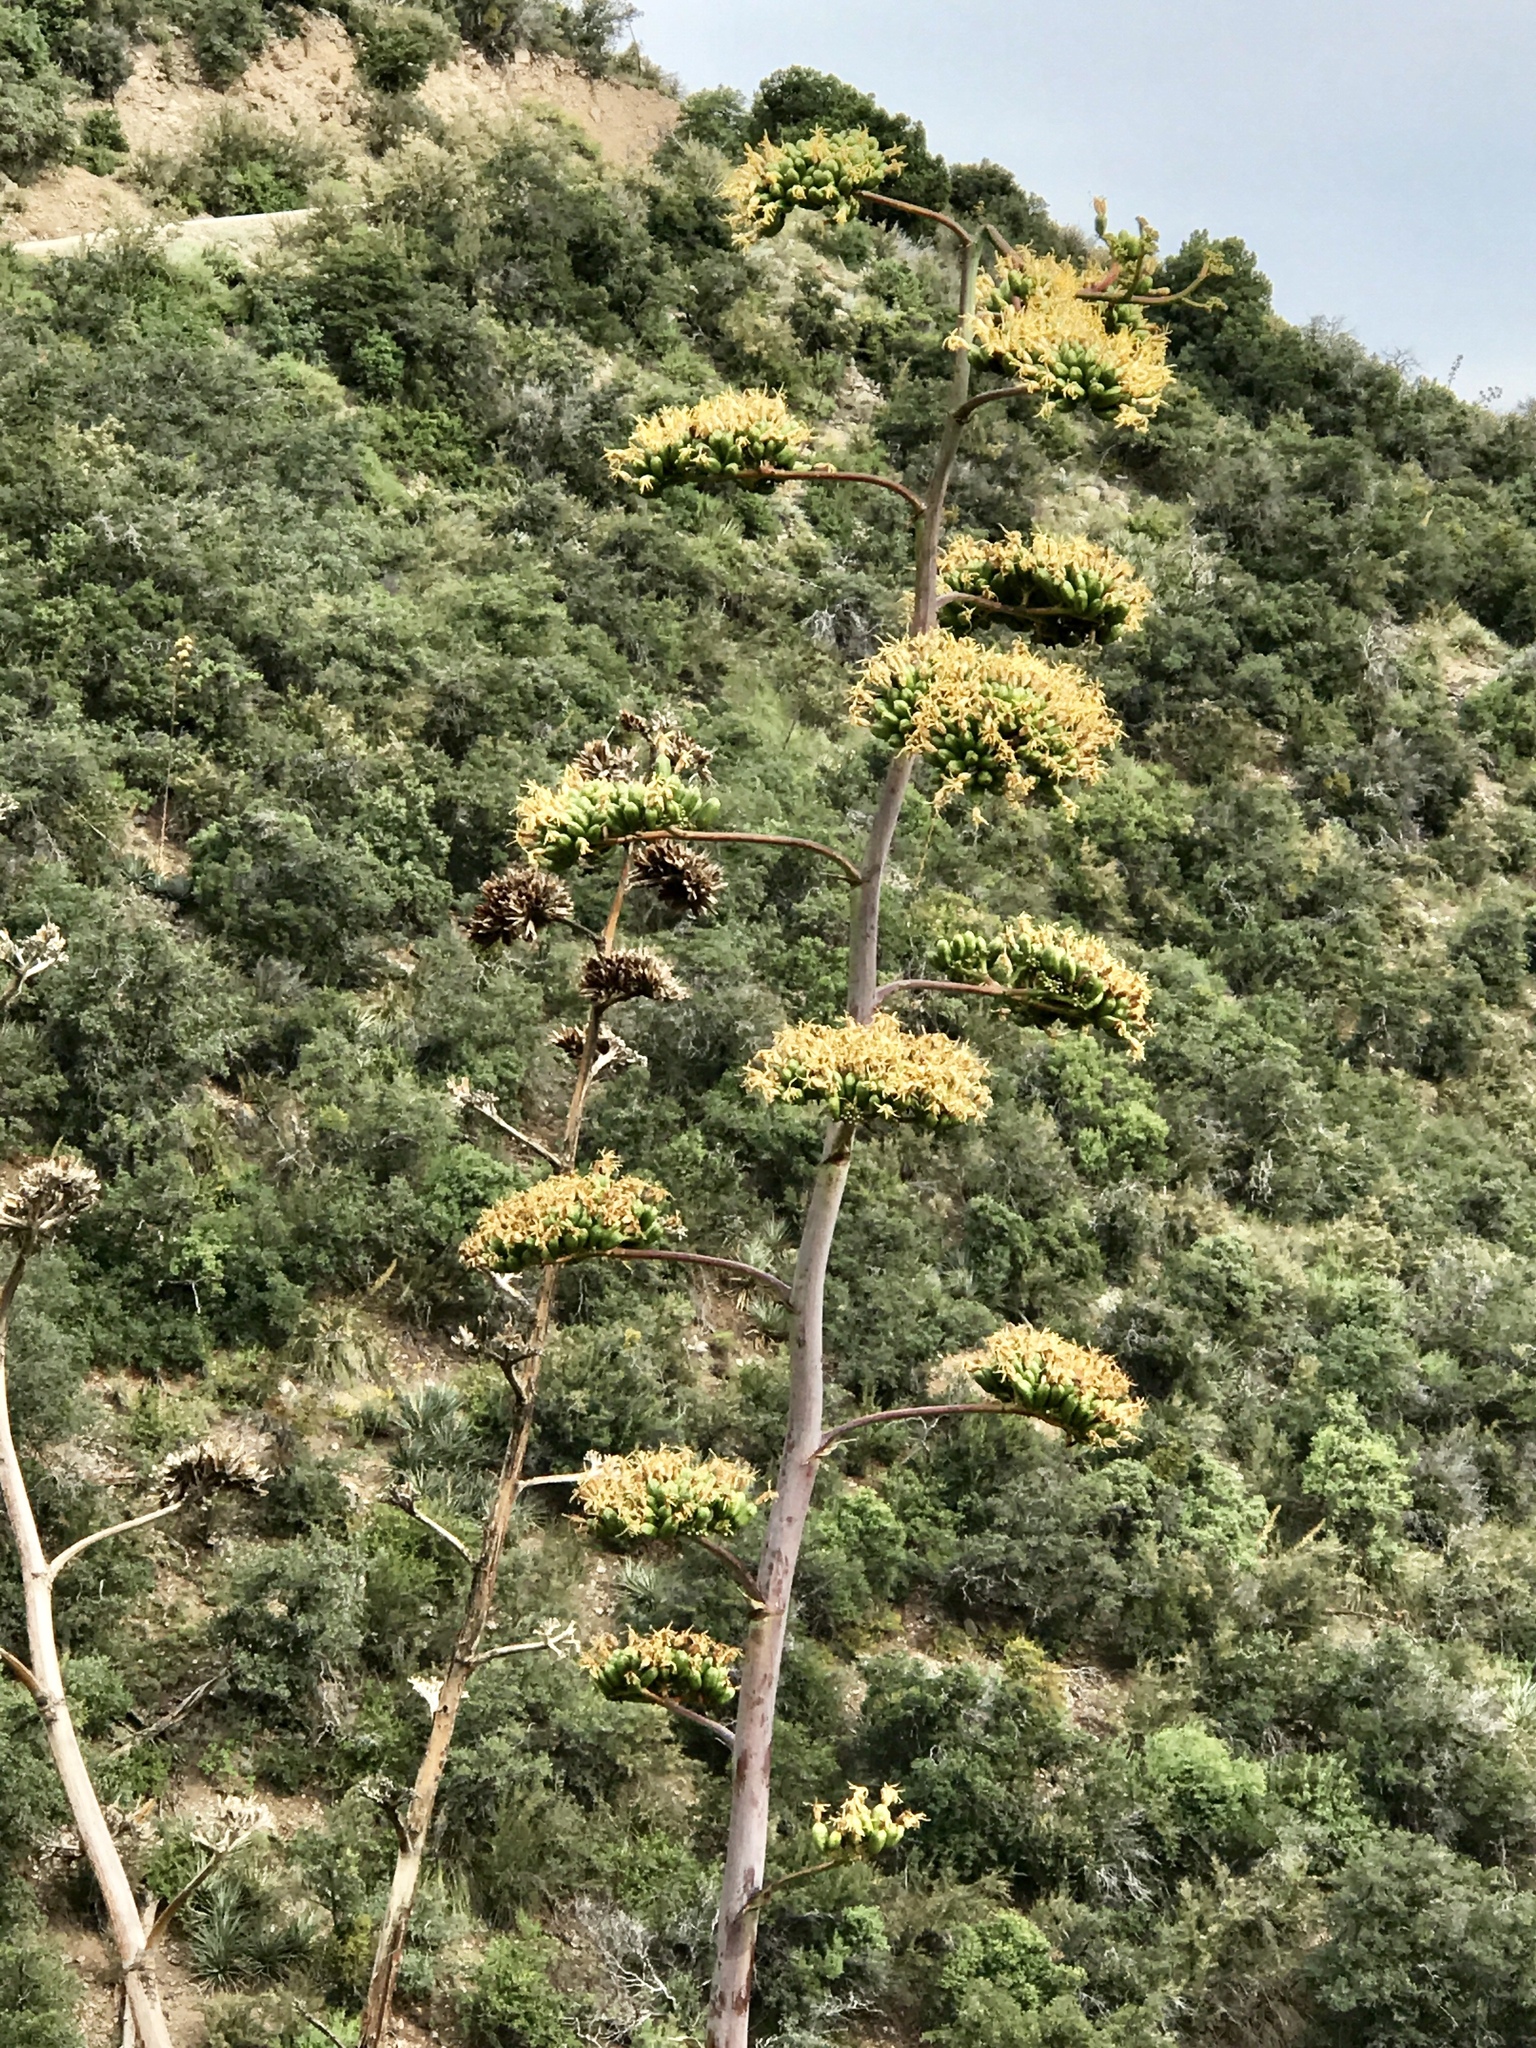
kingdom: Plantae
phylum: Tracheophyta
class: Liliopsida
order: Asparagales
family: Asparagaceae
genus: Agave
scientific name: Agave chrysantha
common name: Golden-flowered agave
